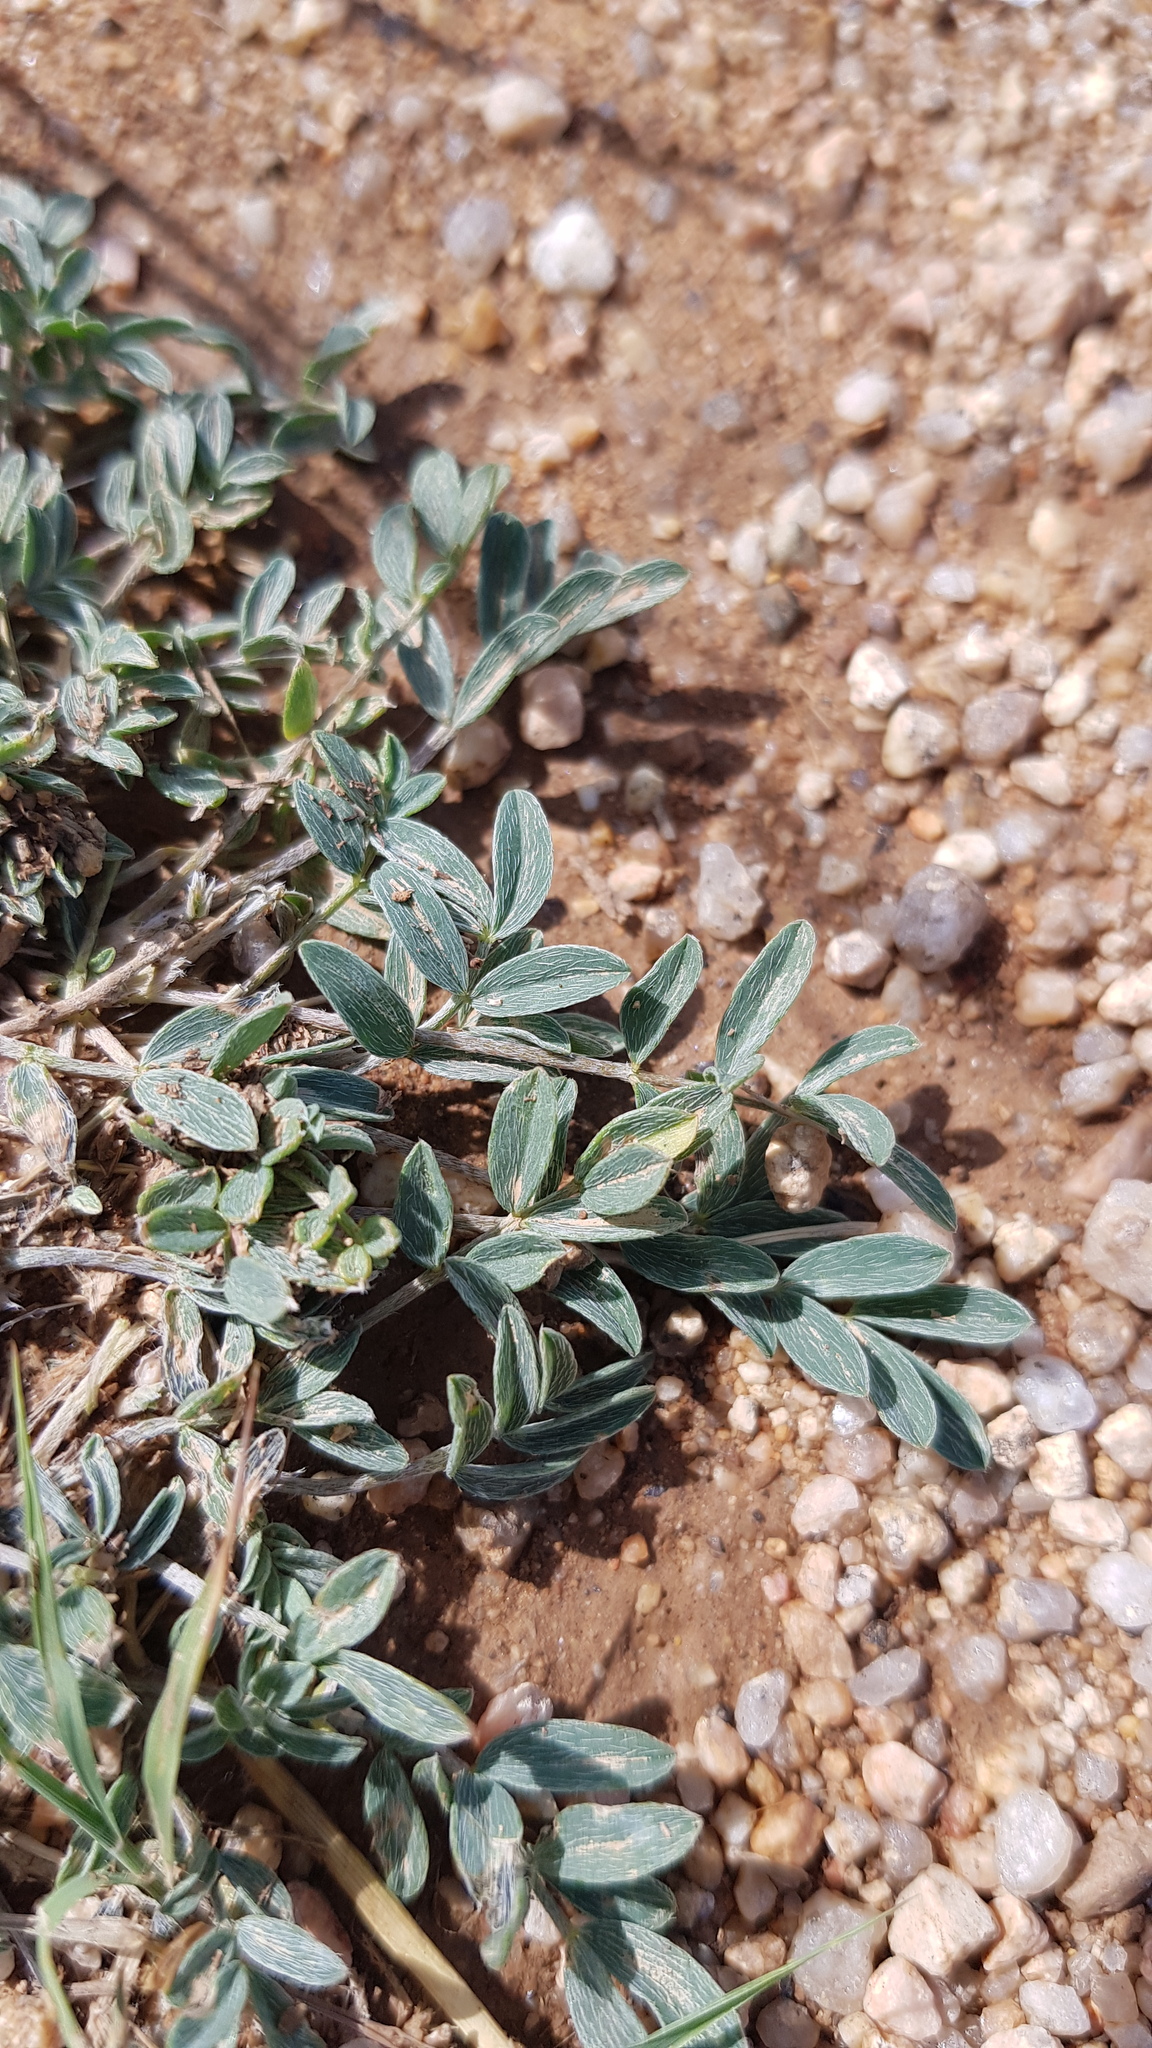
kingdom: Plantae
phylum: Tracheophyta
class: Magnoliopsida
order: Fabales
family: Fabaceae
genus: Astragalus
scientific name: Astragalus scaberrimus
